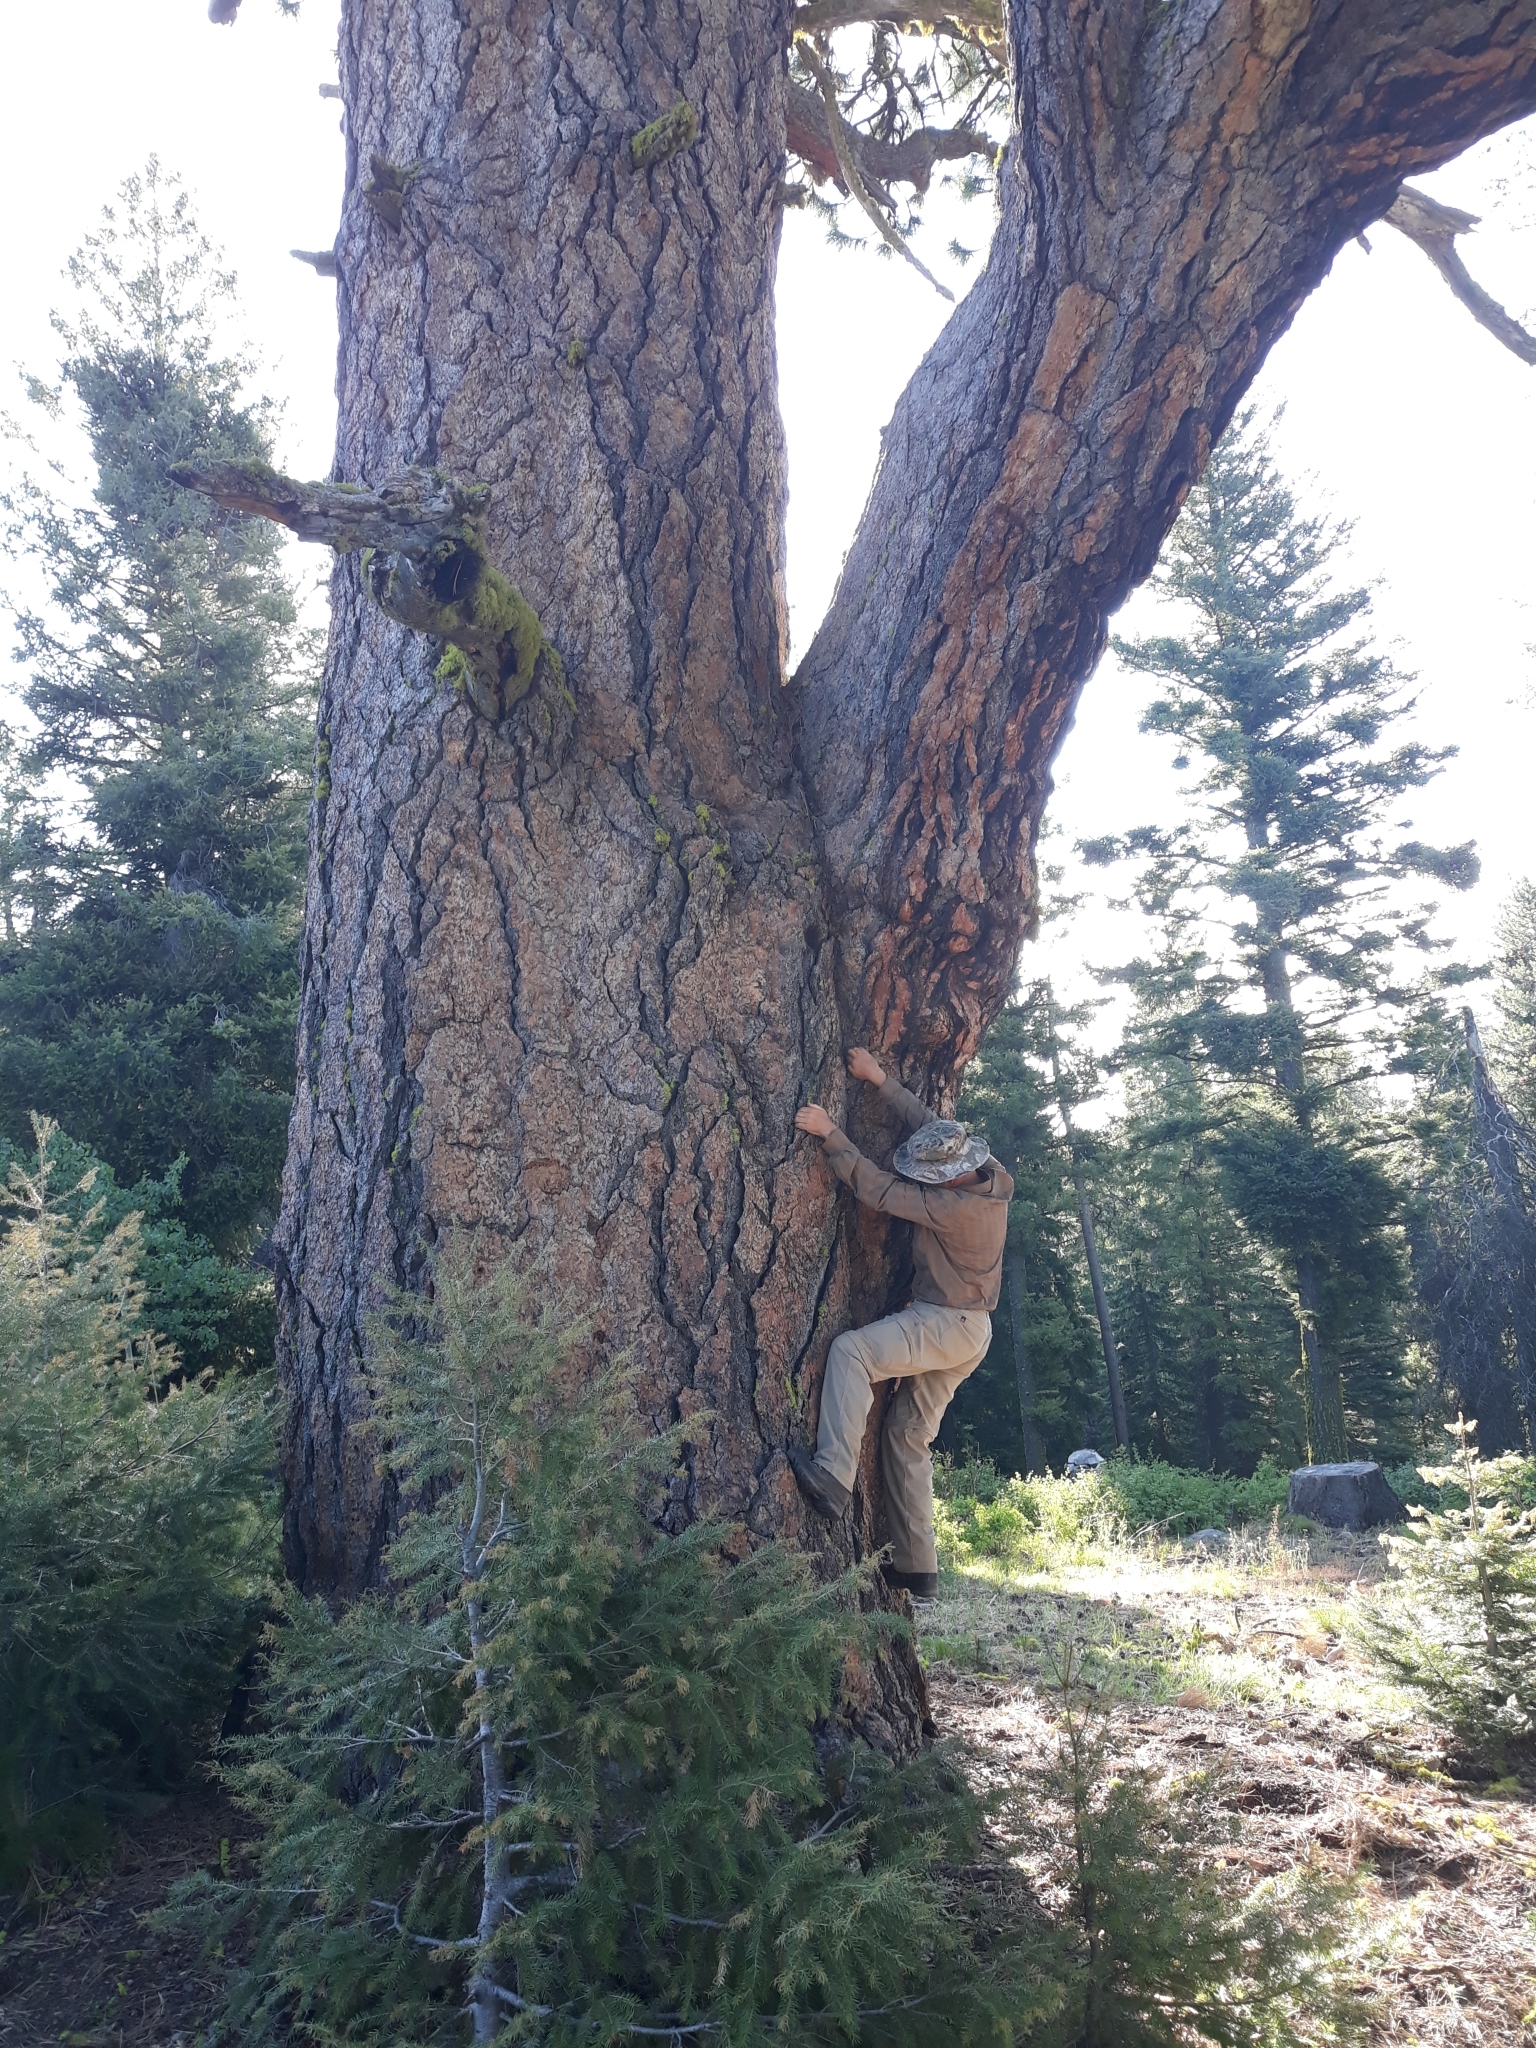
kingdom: Plantae
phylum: Tracheophyta
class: Pinopsida
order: Pinales
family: Pinaceae
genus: Pinus
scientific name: Pinus ponderosa
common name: Western yellow-pine
